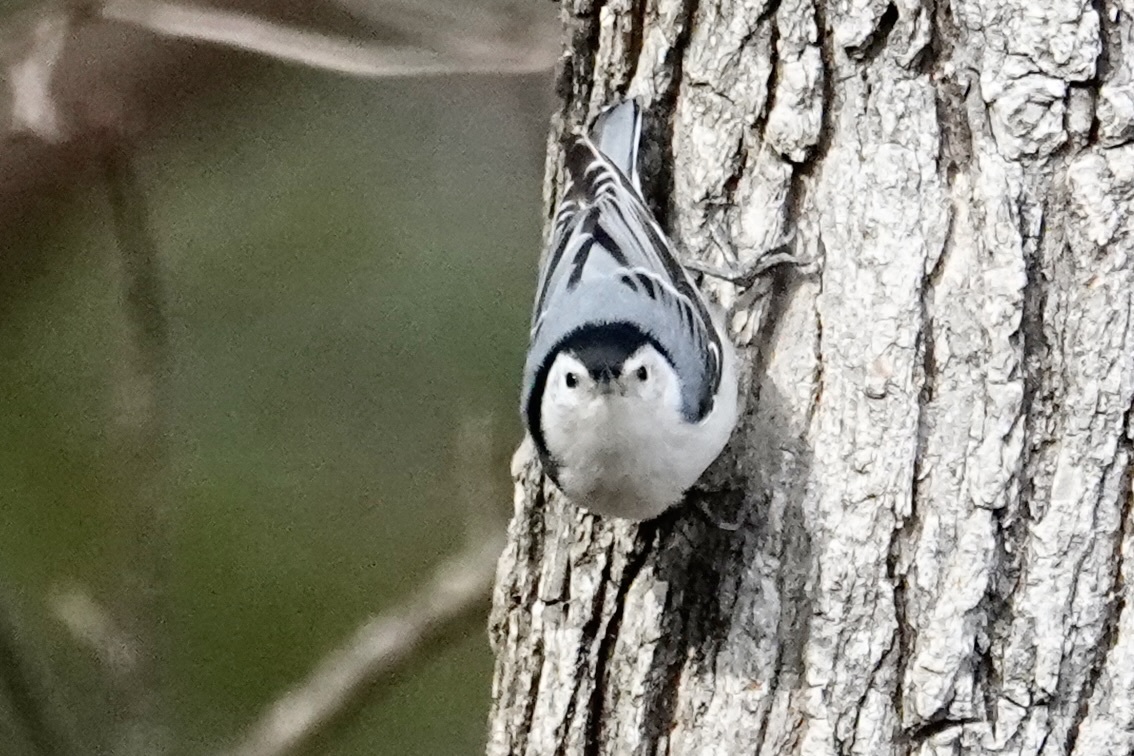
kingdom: Animalia
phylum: Chordata
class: Aves
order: Passeriformes
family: Sittidae
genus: Sitta
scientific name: Sitta carolinensis
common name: White-breasted nuthatch
